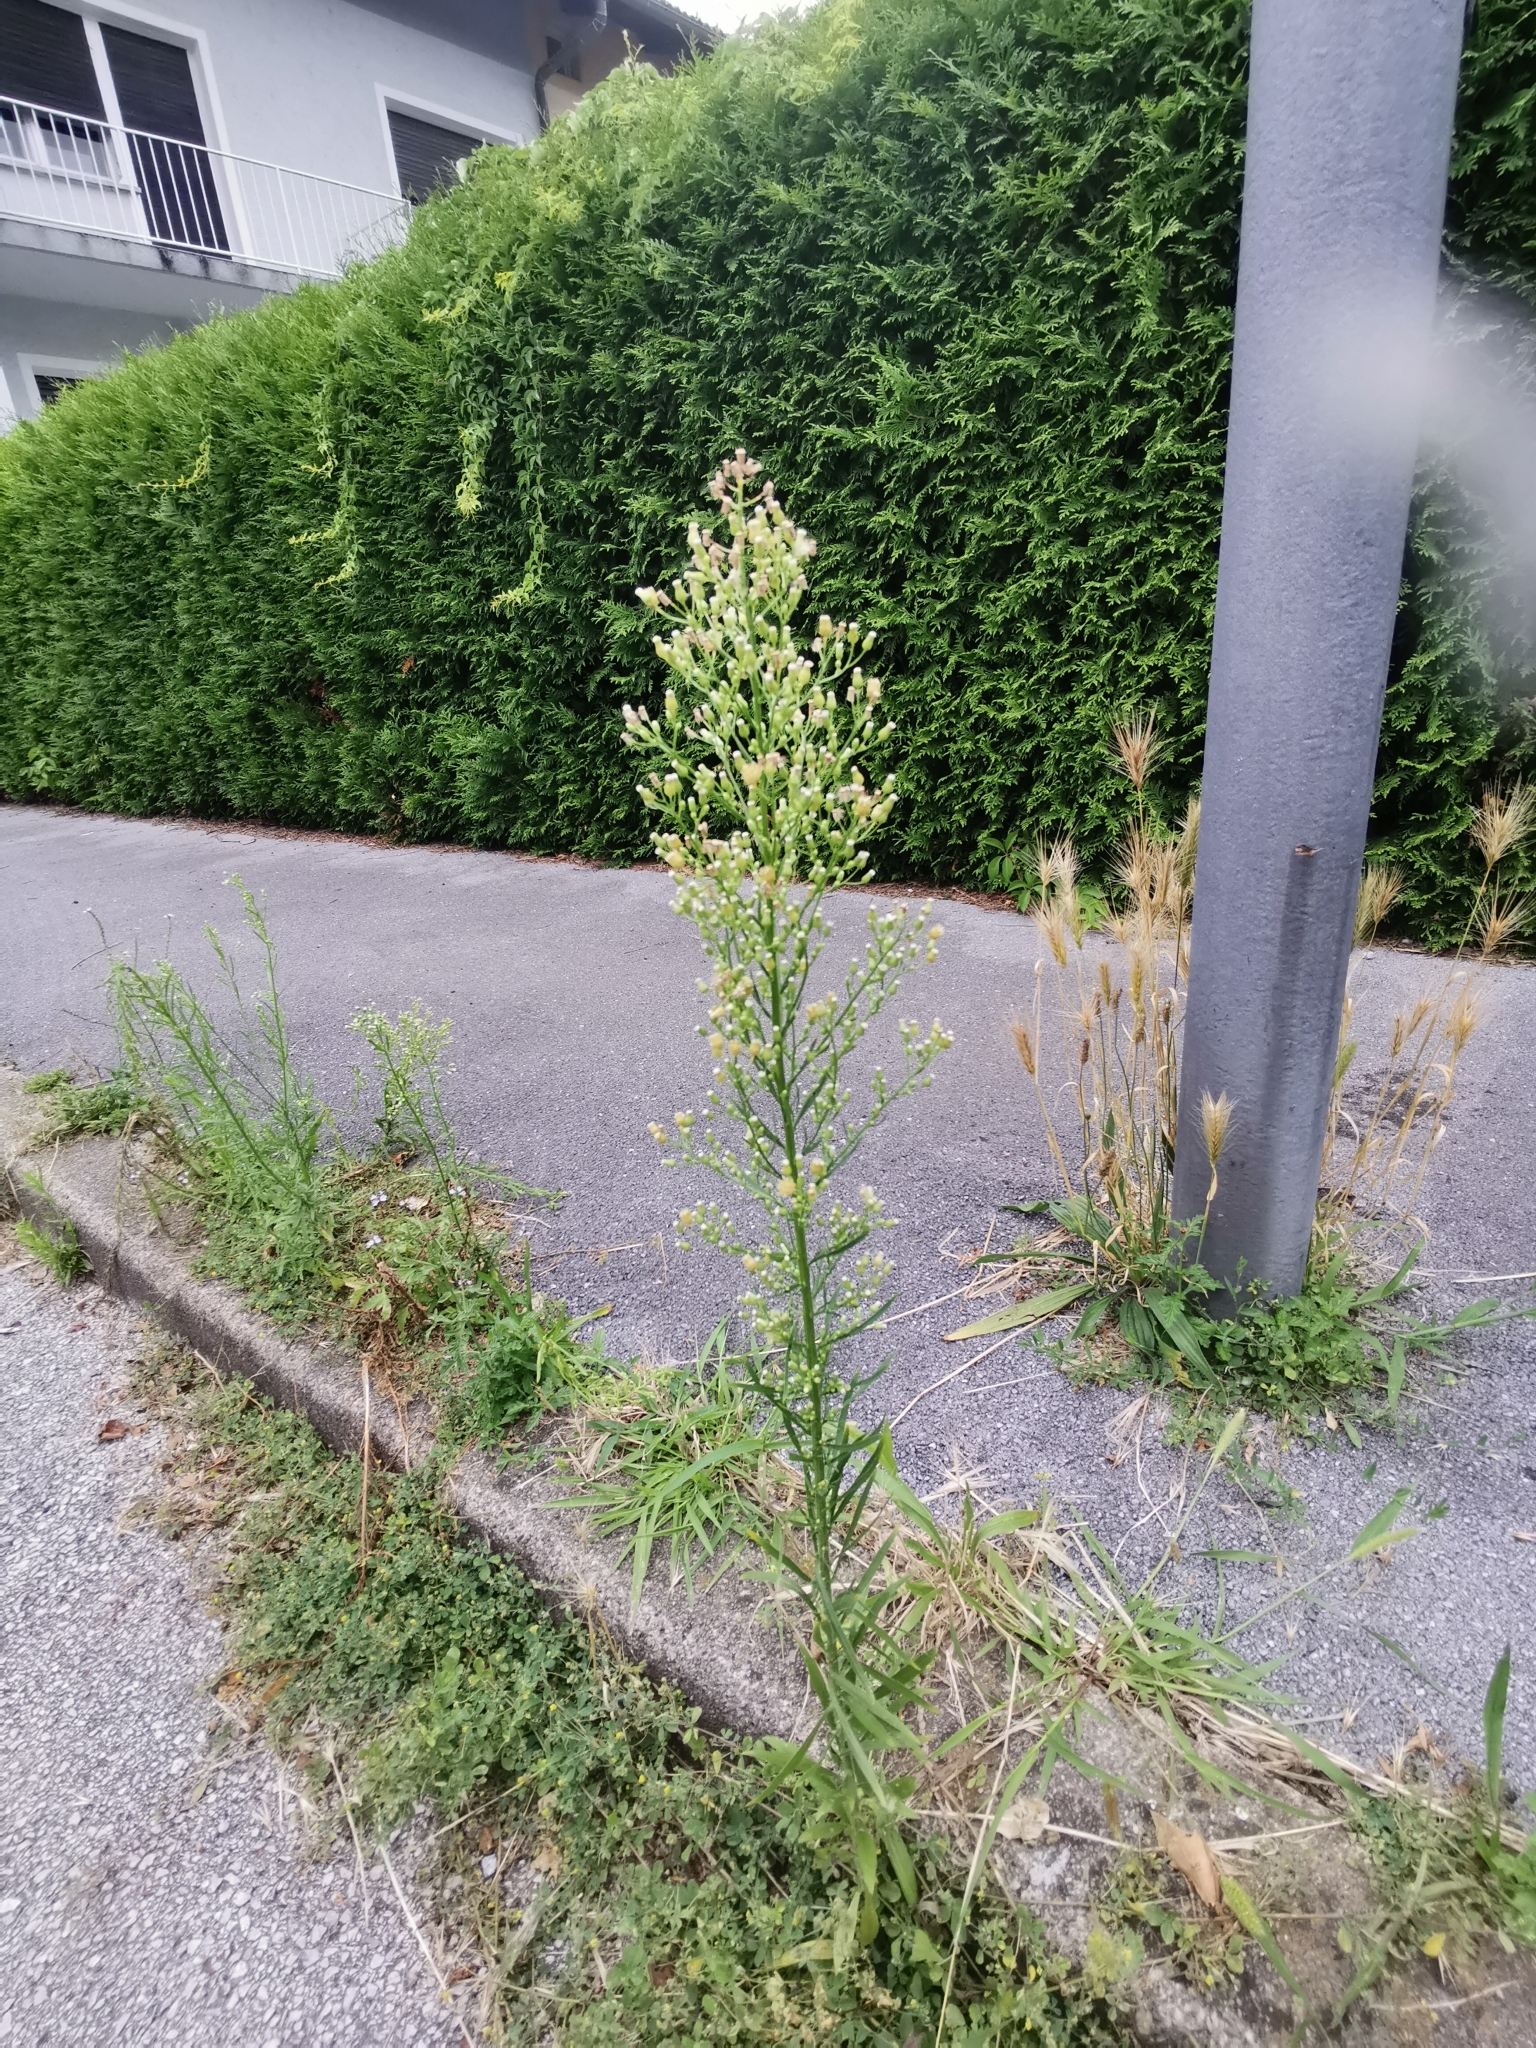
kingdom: Plantae
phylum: Tracheophyta
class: Magnoliopsida
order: Asterales
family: Asteraceae
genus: Erigeron
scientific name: Erigeron canadensis
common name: Canadian fleabane
